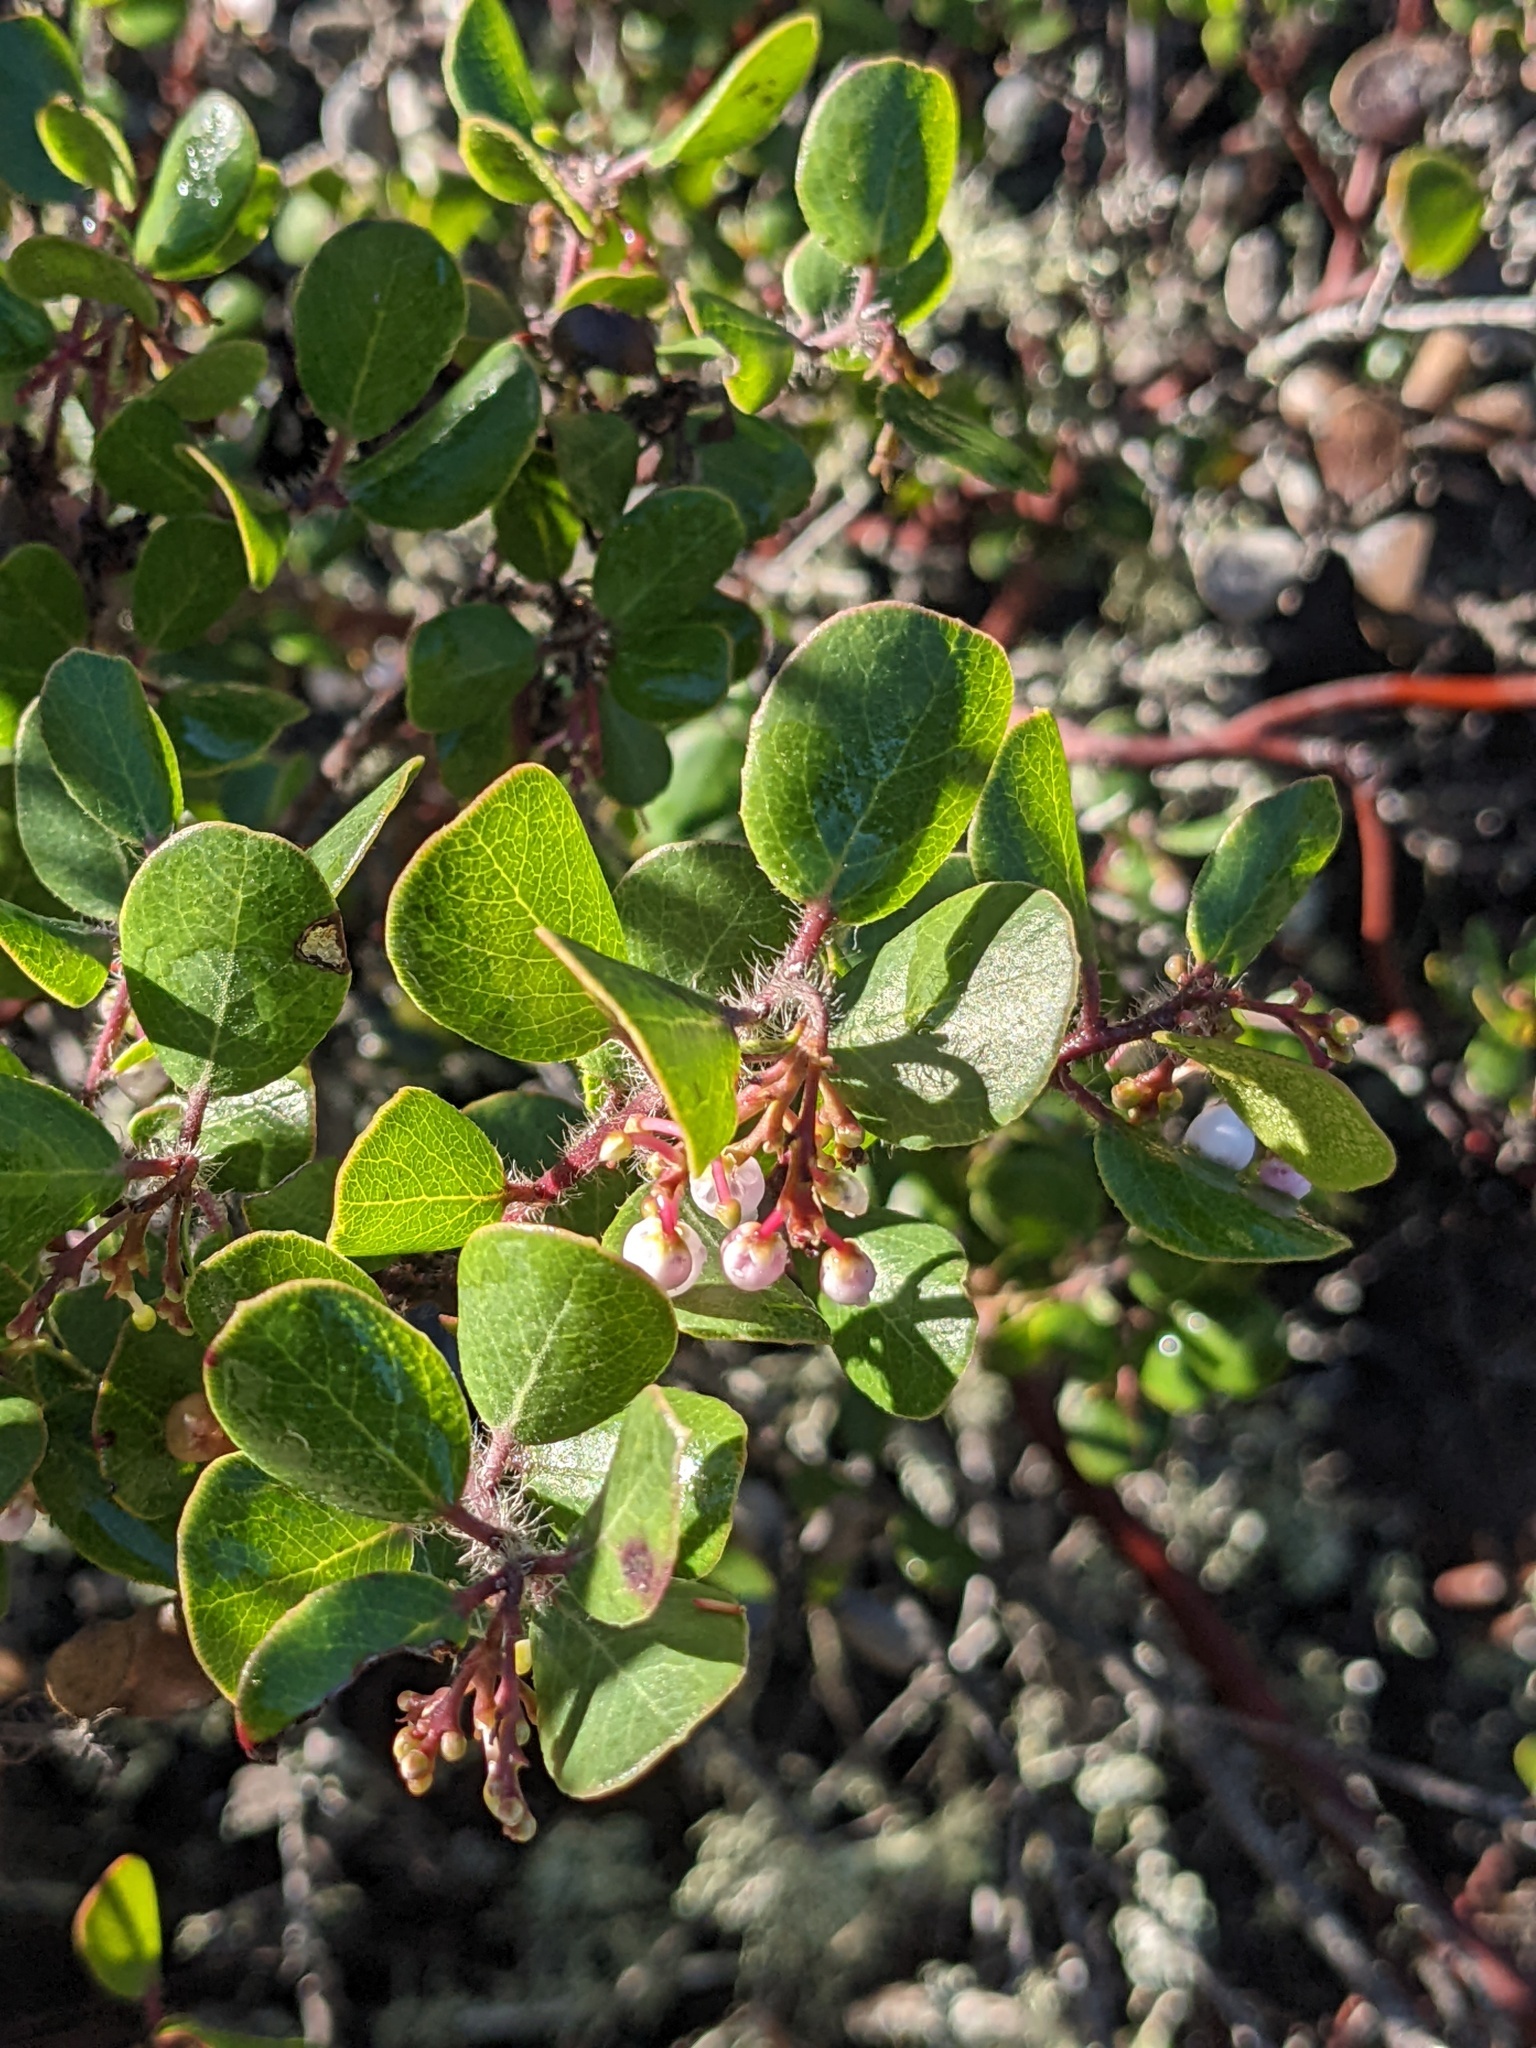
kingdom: Plantae
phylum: Tracheophyta
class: Magnoliopsida
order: Ericales
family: Ericaceae
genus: Arctostaphylos
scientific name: Arctostaphylos nummularia
